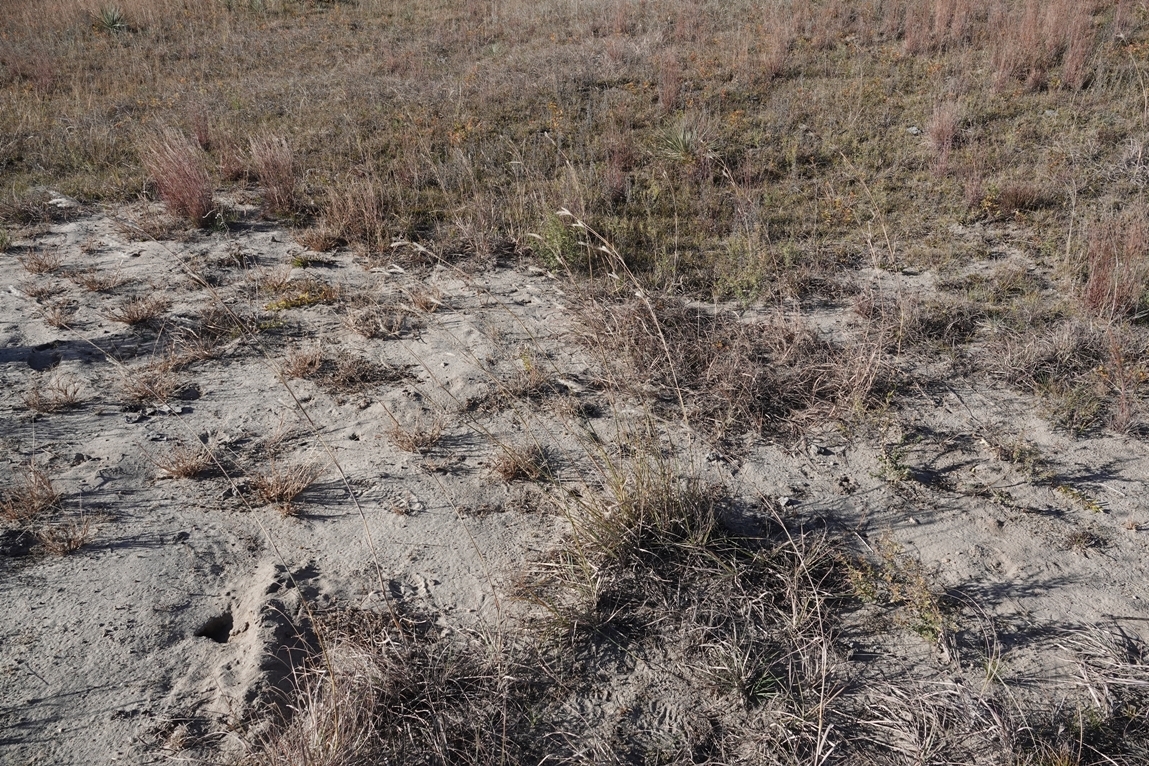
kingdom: Plantae
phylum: Tracheophyta
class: Liliopsida
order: Poales
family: Poaceae
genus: Andropogon
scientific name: Andropogon hallii
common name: Sand bluestem
